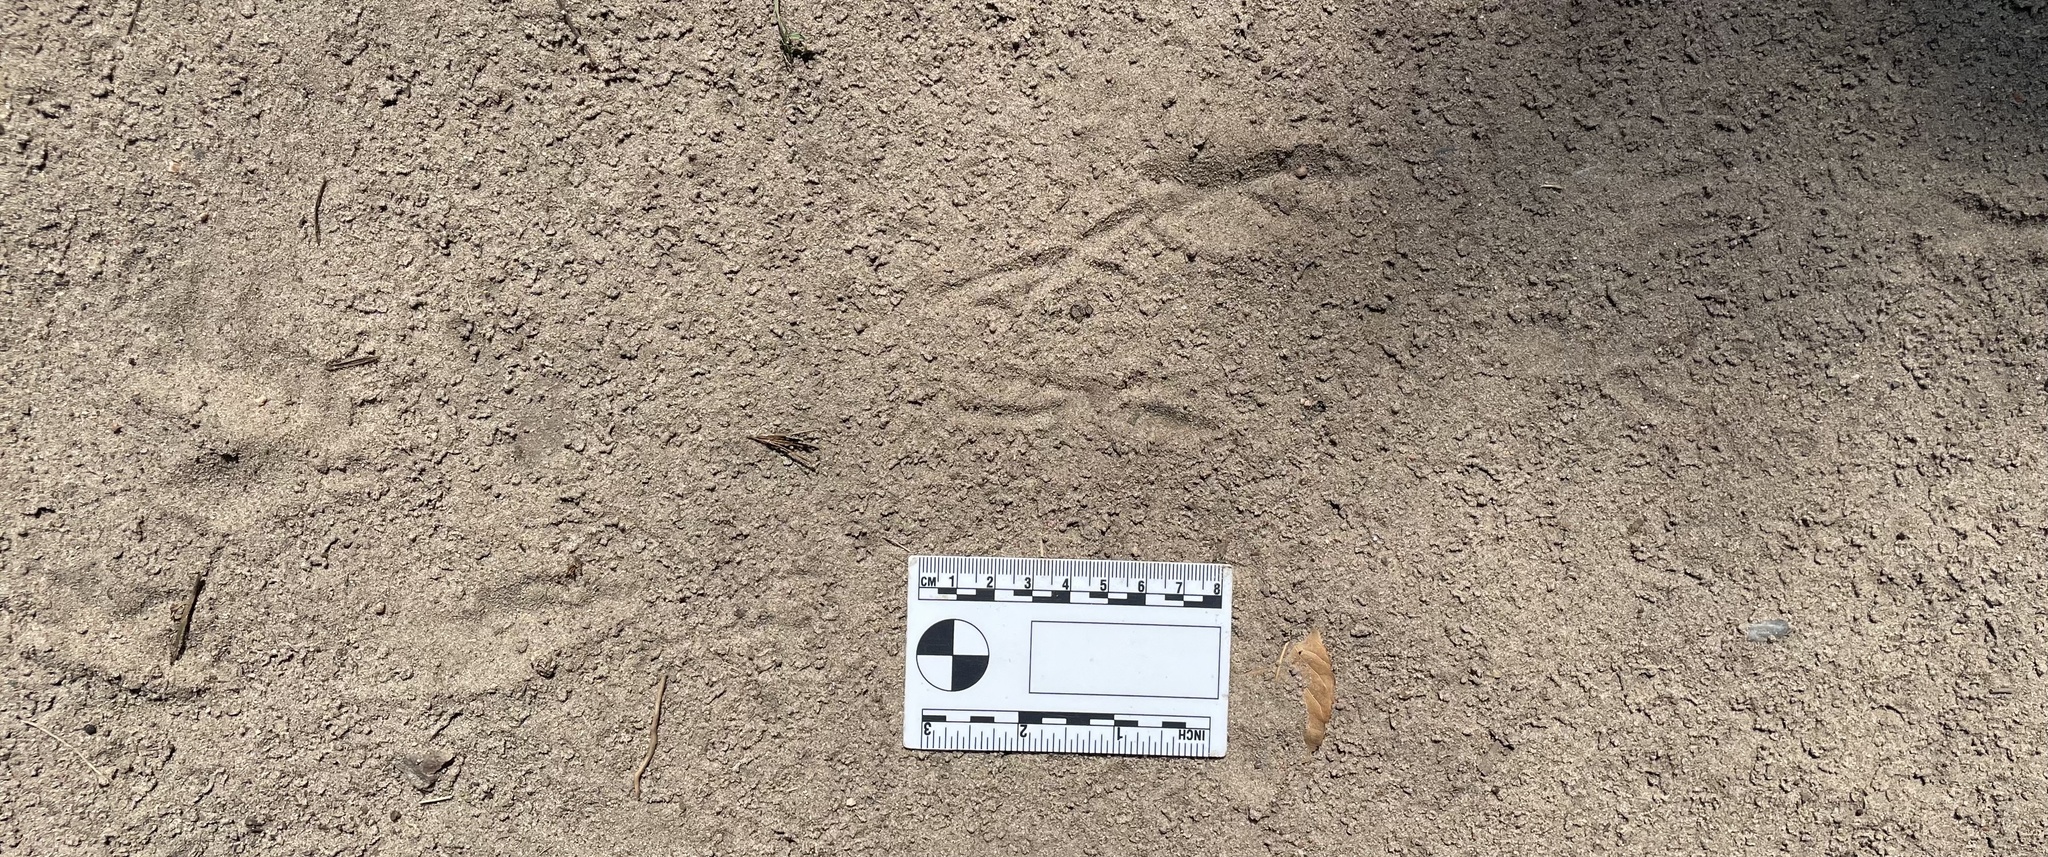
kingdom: Animalia
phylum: Chordata
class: Aves
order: Piciformes
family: Picidae
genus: Colaptes
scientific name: Colaptes auratus
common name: Northern flicker
